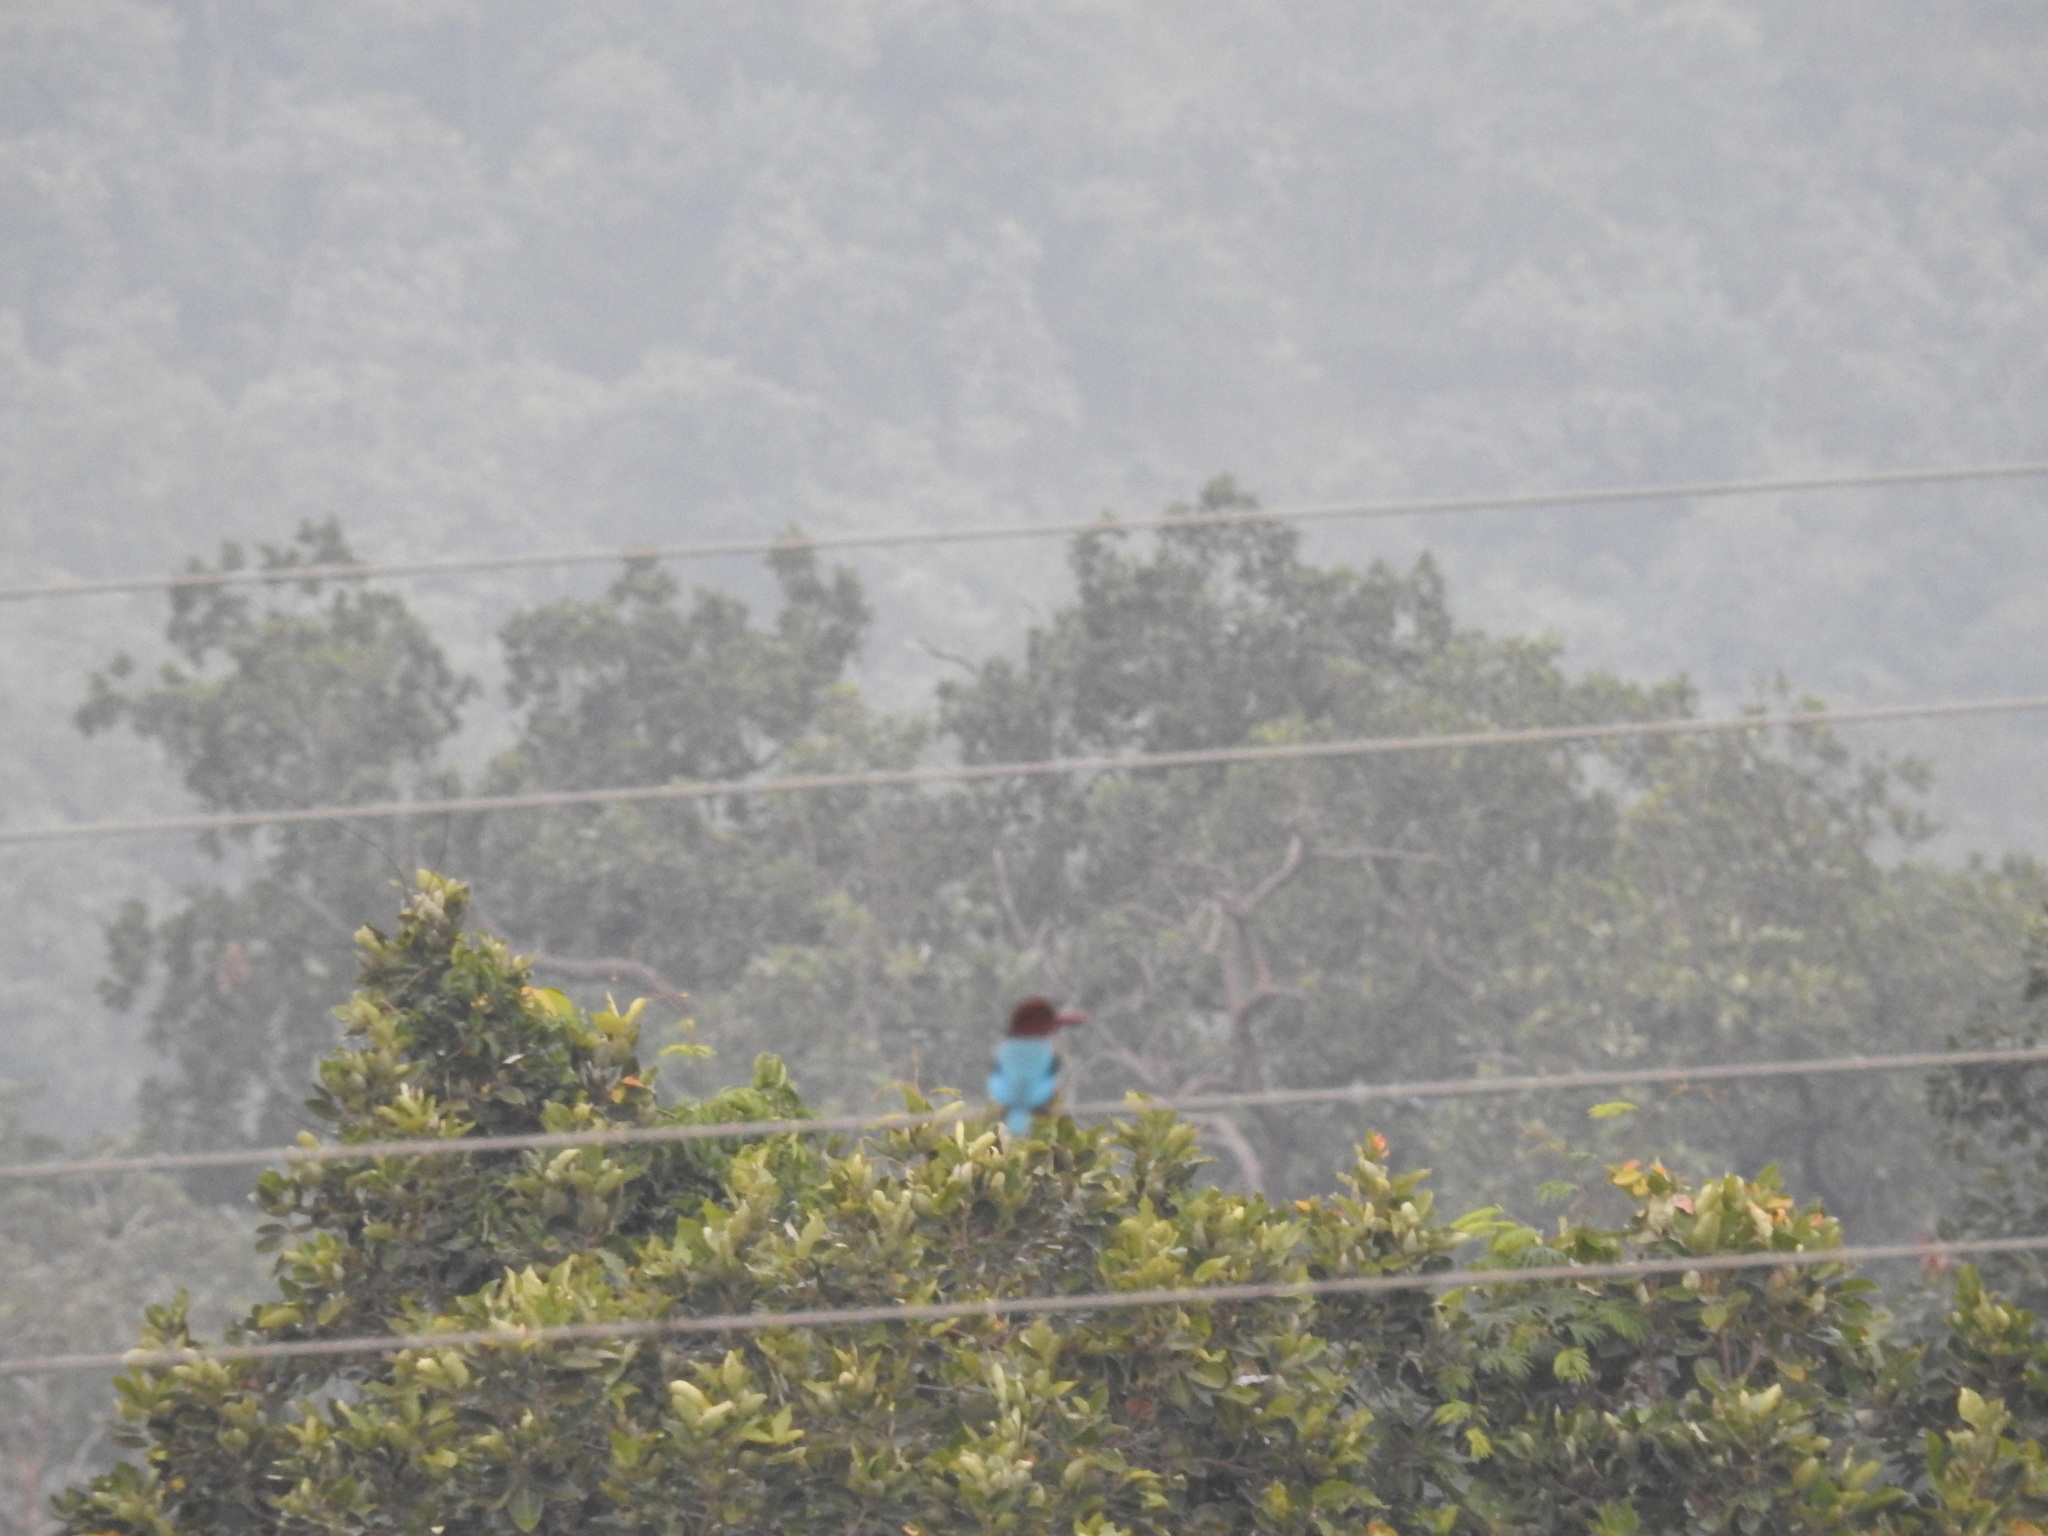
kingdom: Animalia
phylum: Chordata
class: Aves
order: Coraciiformes
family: Alcedinidae
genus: Halcyon
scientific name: Halcyon smyrnensis
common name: White-throated kingfisher
